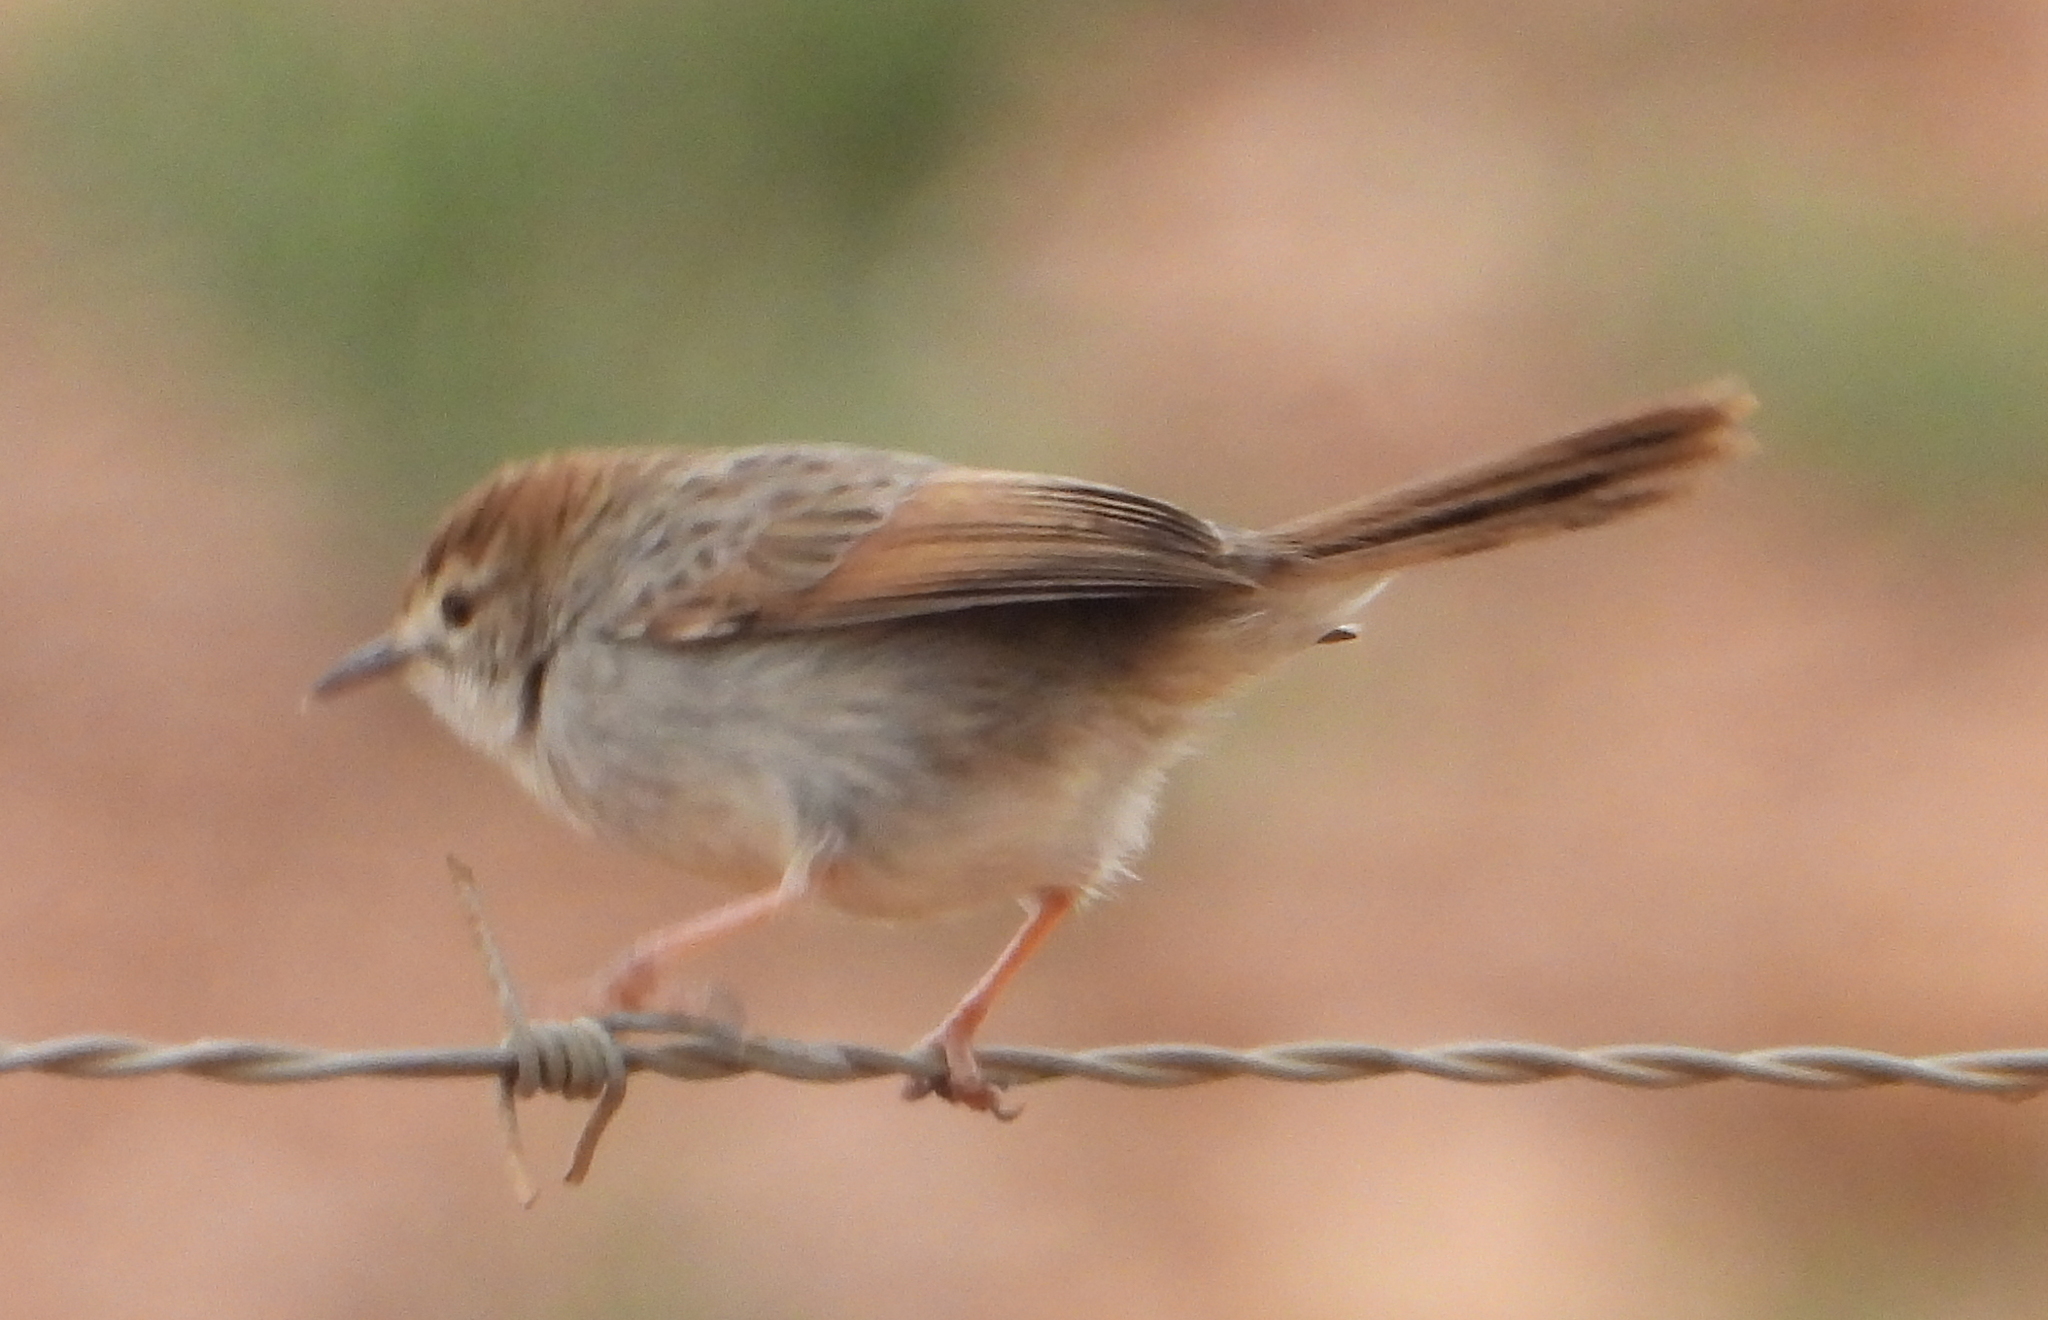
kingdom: Animalia
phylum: Chordata
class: Aves
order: Passeriformes
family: Cisticolidae
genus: Cisticola
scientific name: Cisticola subruficapilla
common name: Grey-backed cisticola
